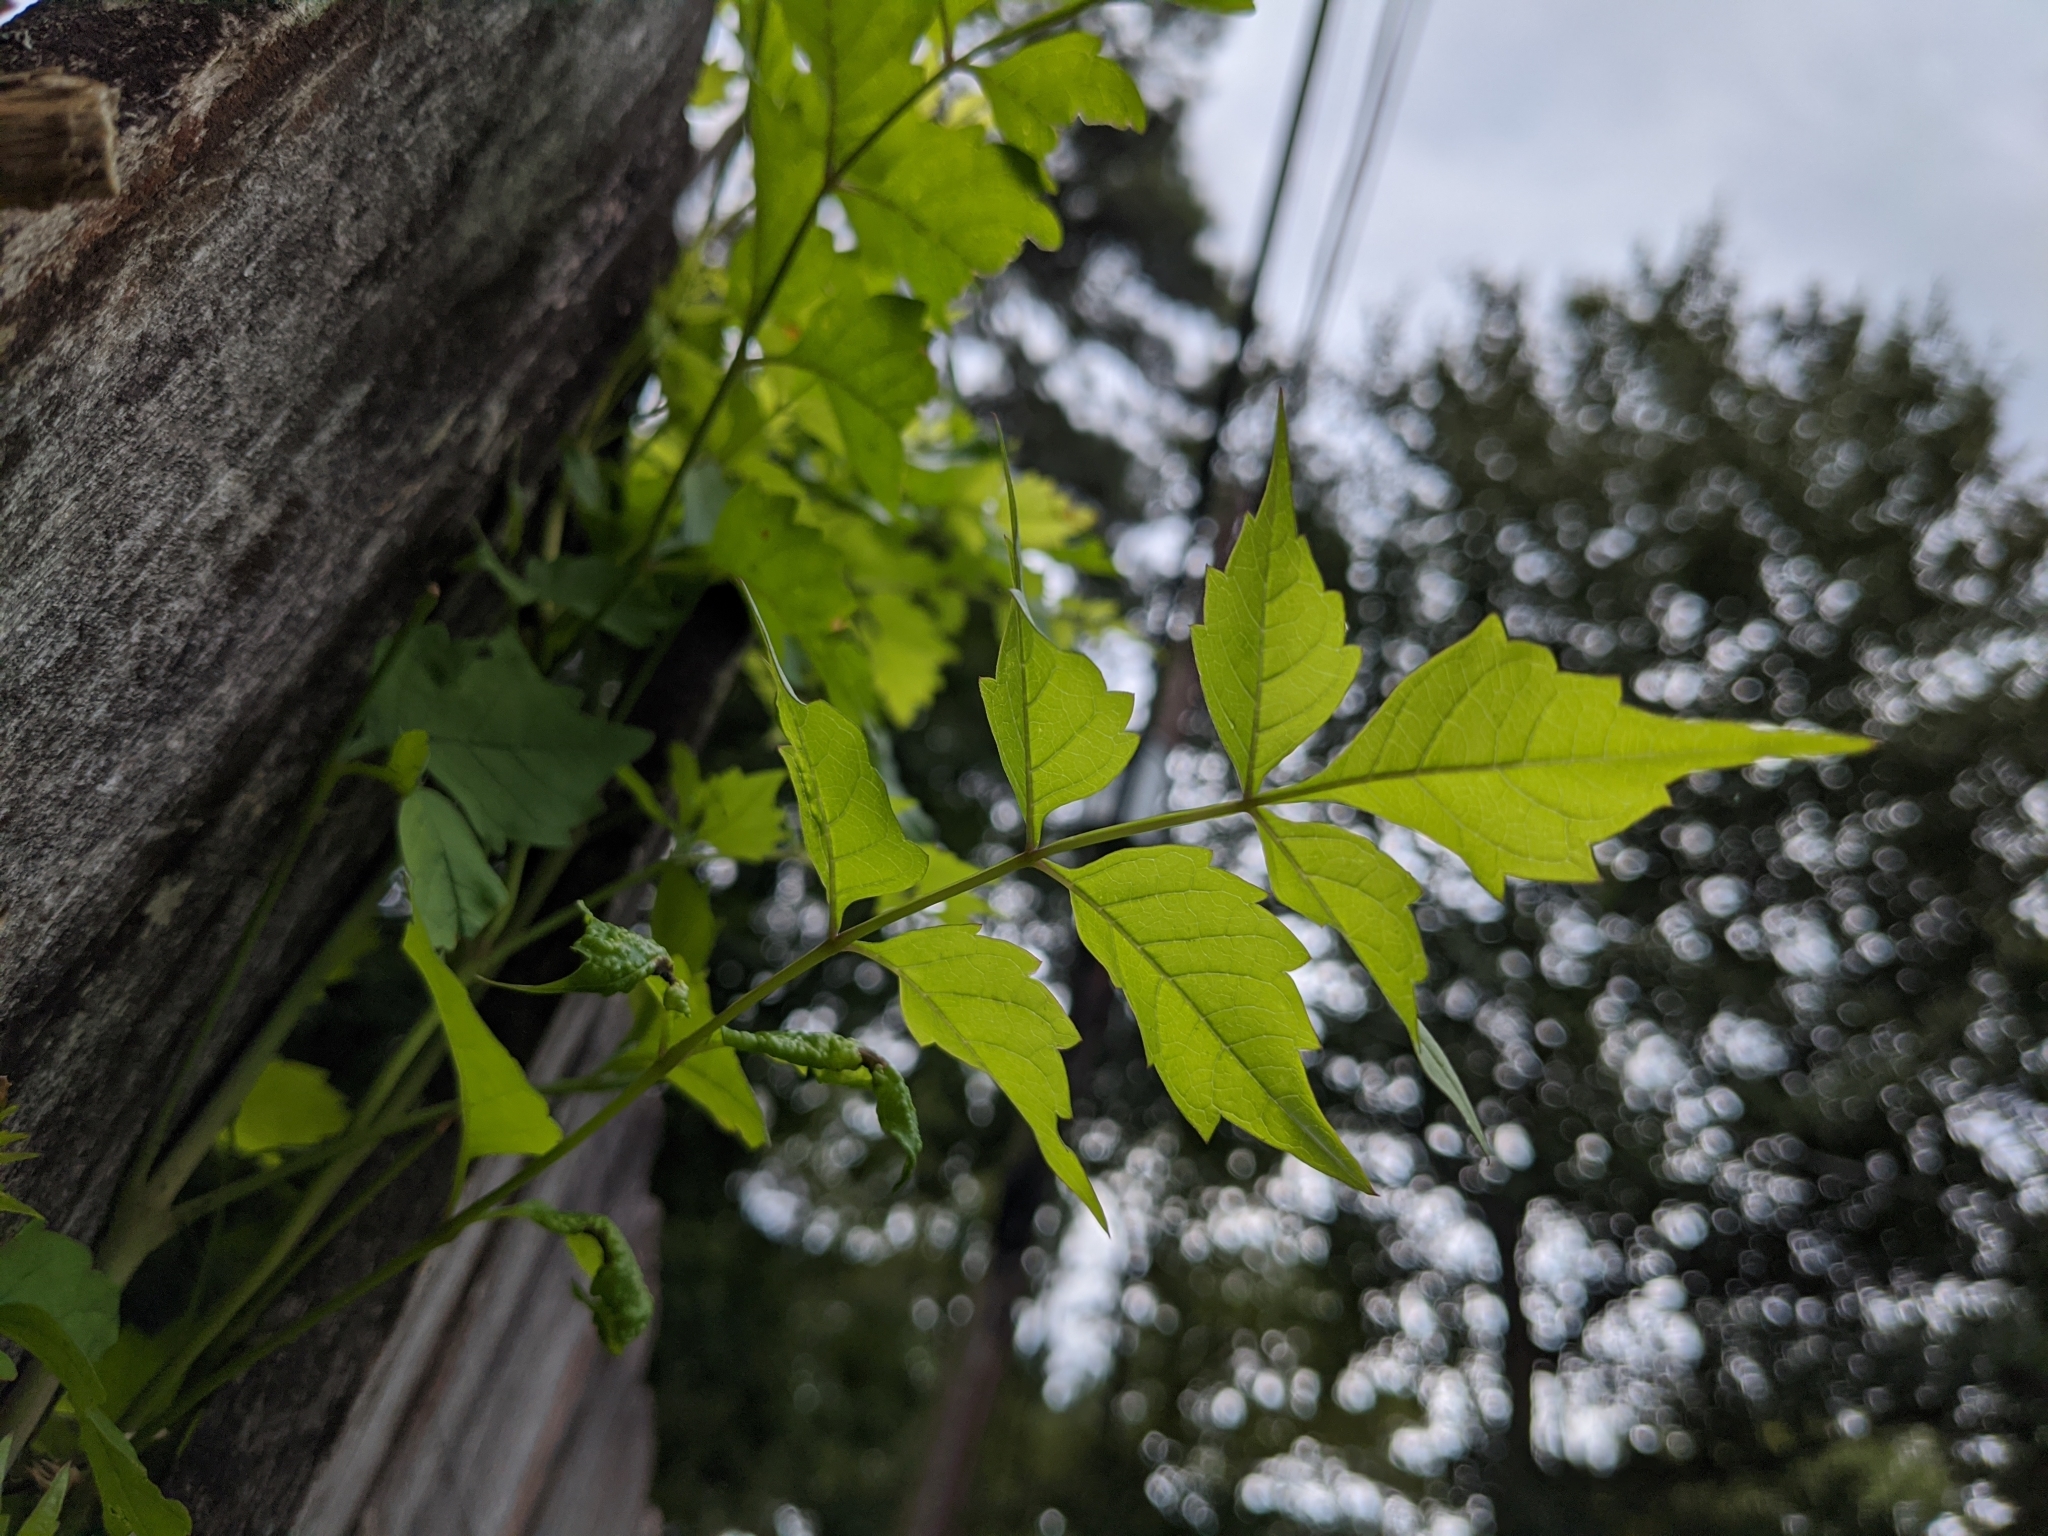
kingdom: Plantae
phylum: Tracheophyta
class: Magnoliopsida
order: Lamiales
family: Bignoniaceae
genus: Campsis
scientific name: Campsis radicans
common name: Trumpet-creeper
